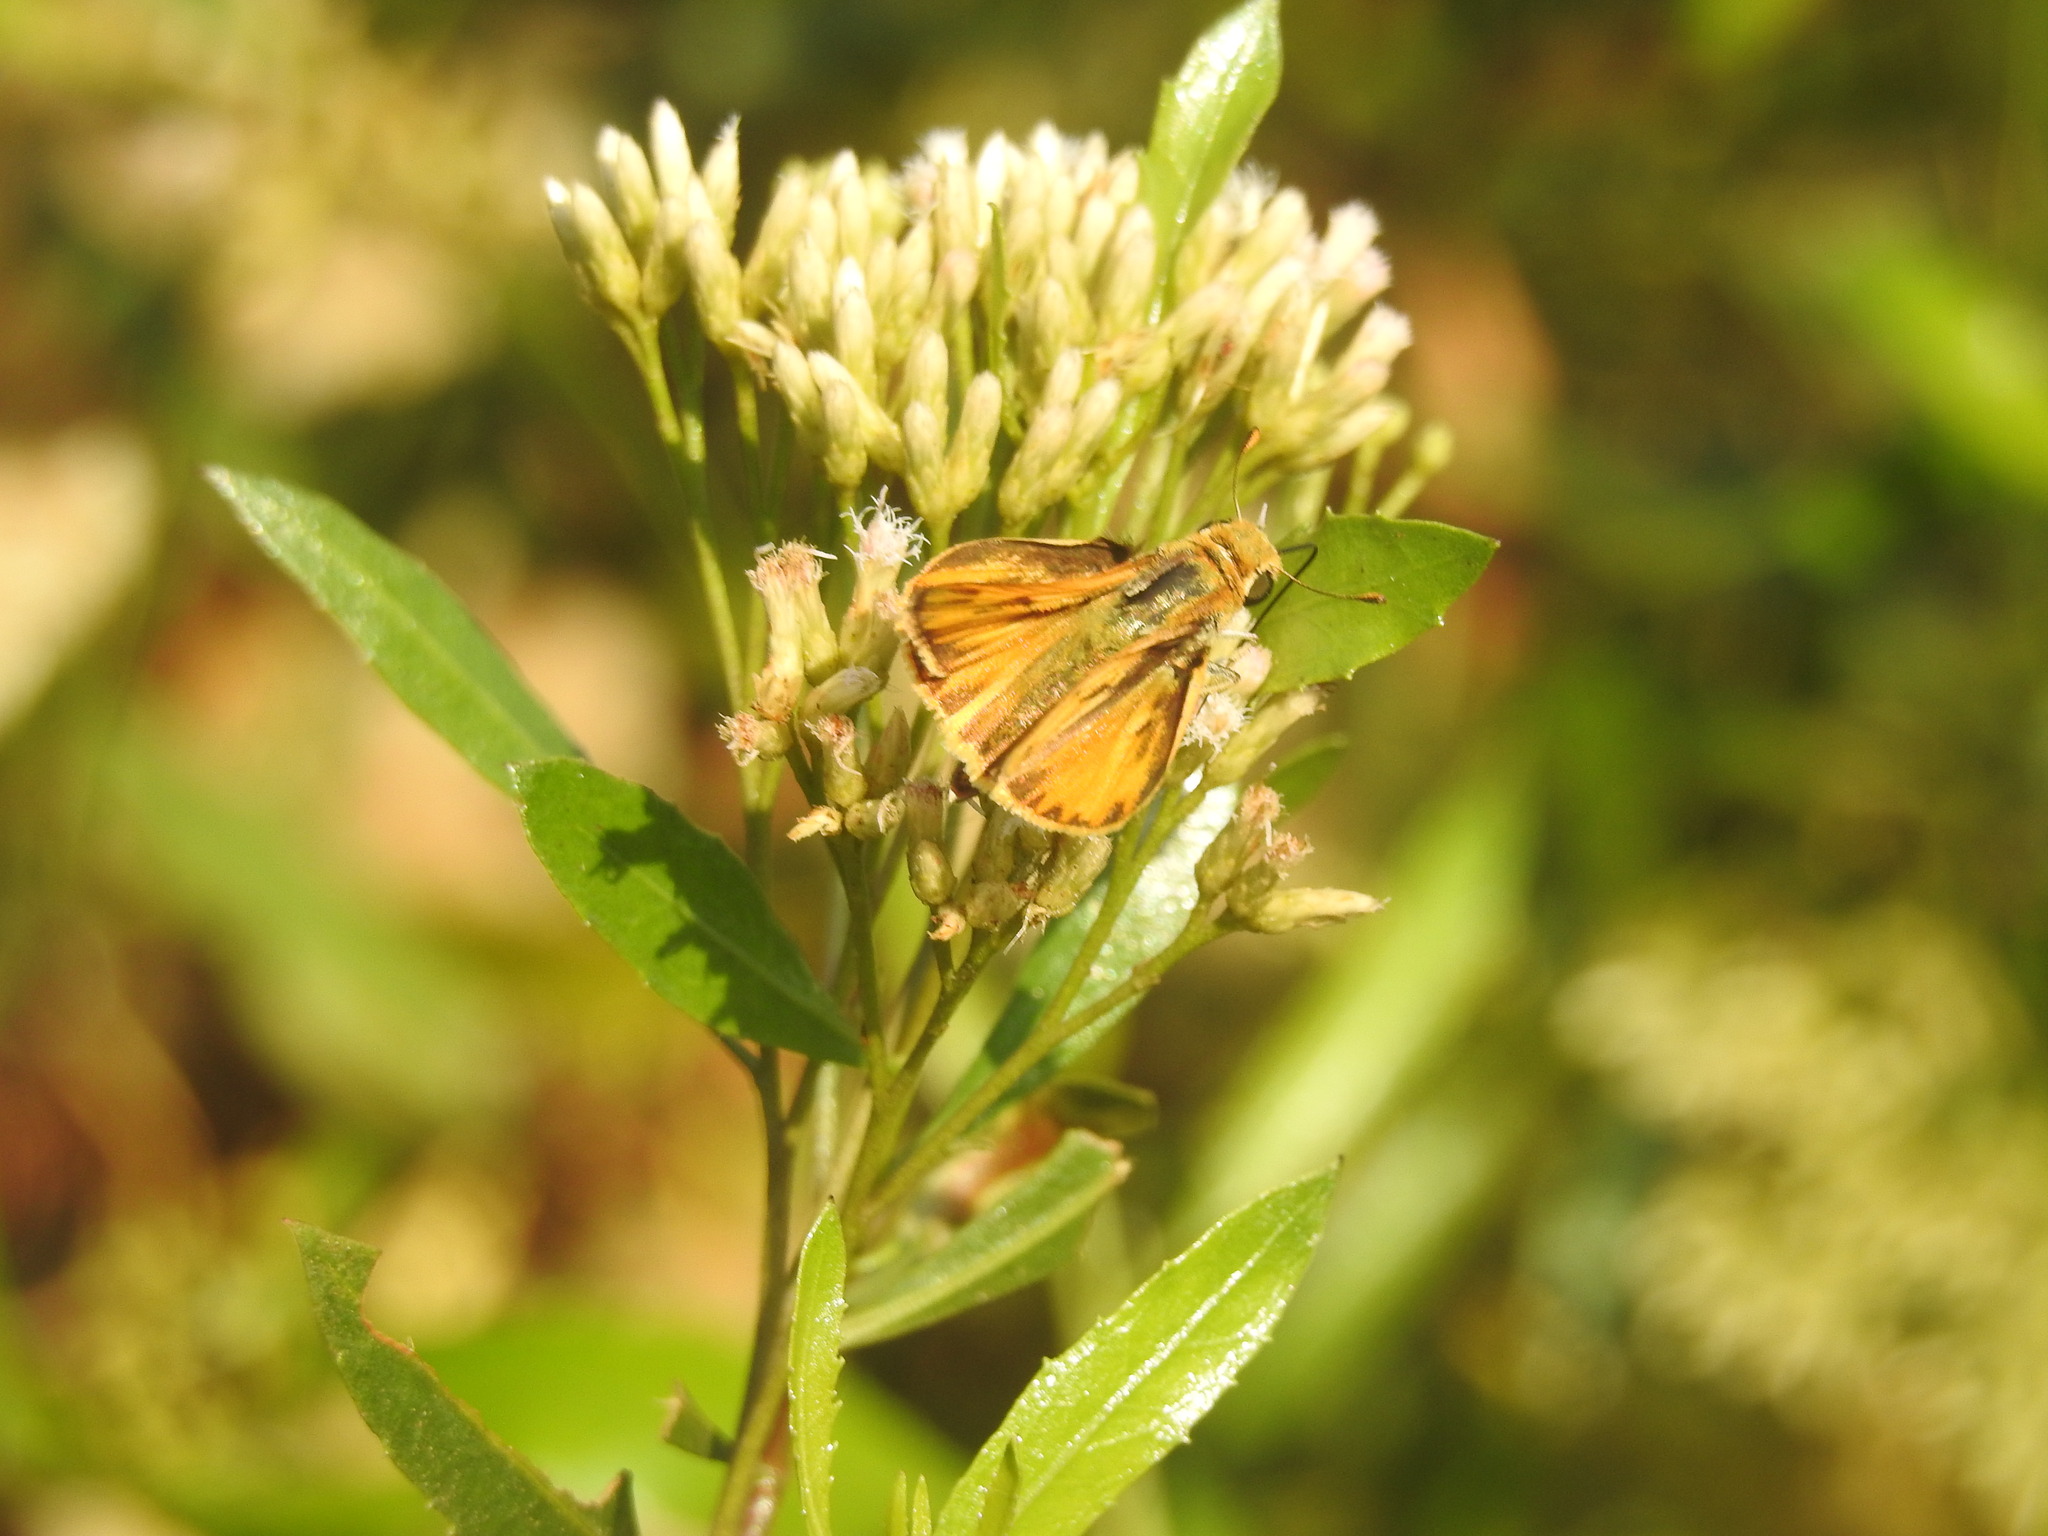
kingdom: Animalia
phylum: Arthropoda
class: Insecta
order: Lepidoptera
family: Hesperiidae
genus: Hylephila
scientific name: Hylephila phyleus
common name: Fiery skipper
